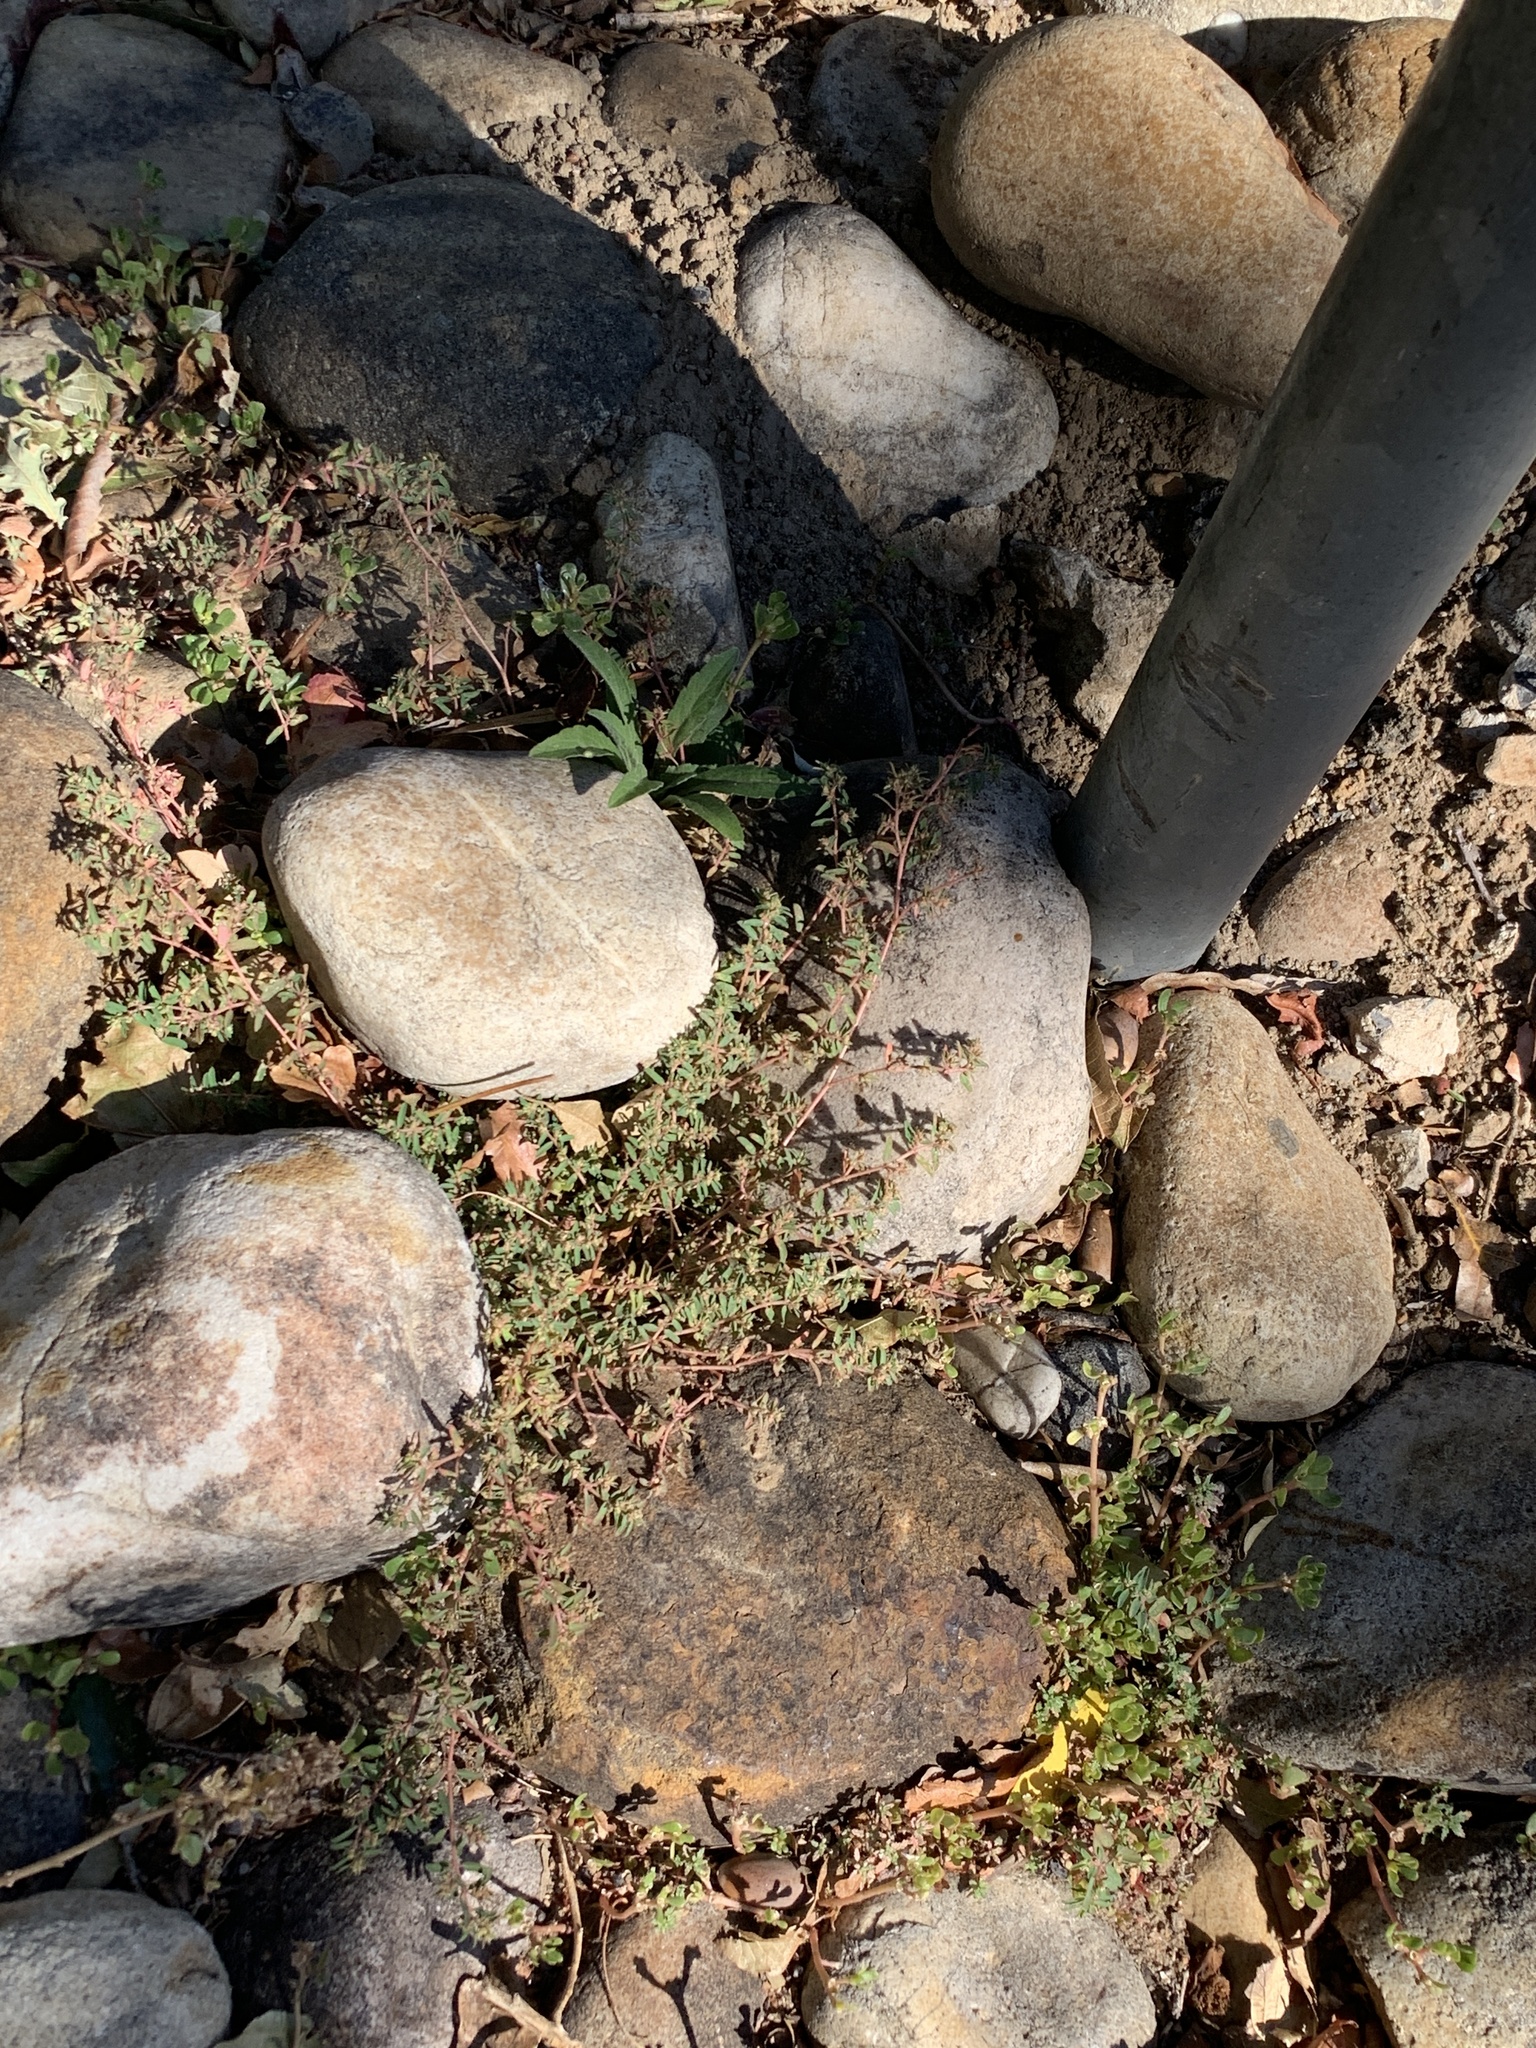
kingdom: Plantae
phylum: Tracheophyta
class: Magnoliopsida
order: Malpighiales
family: Euphorbiaceae
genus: Euphorbia
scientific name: Euphorbia maculata
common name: Spotted spurge
